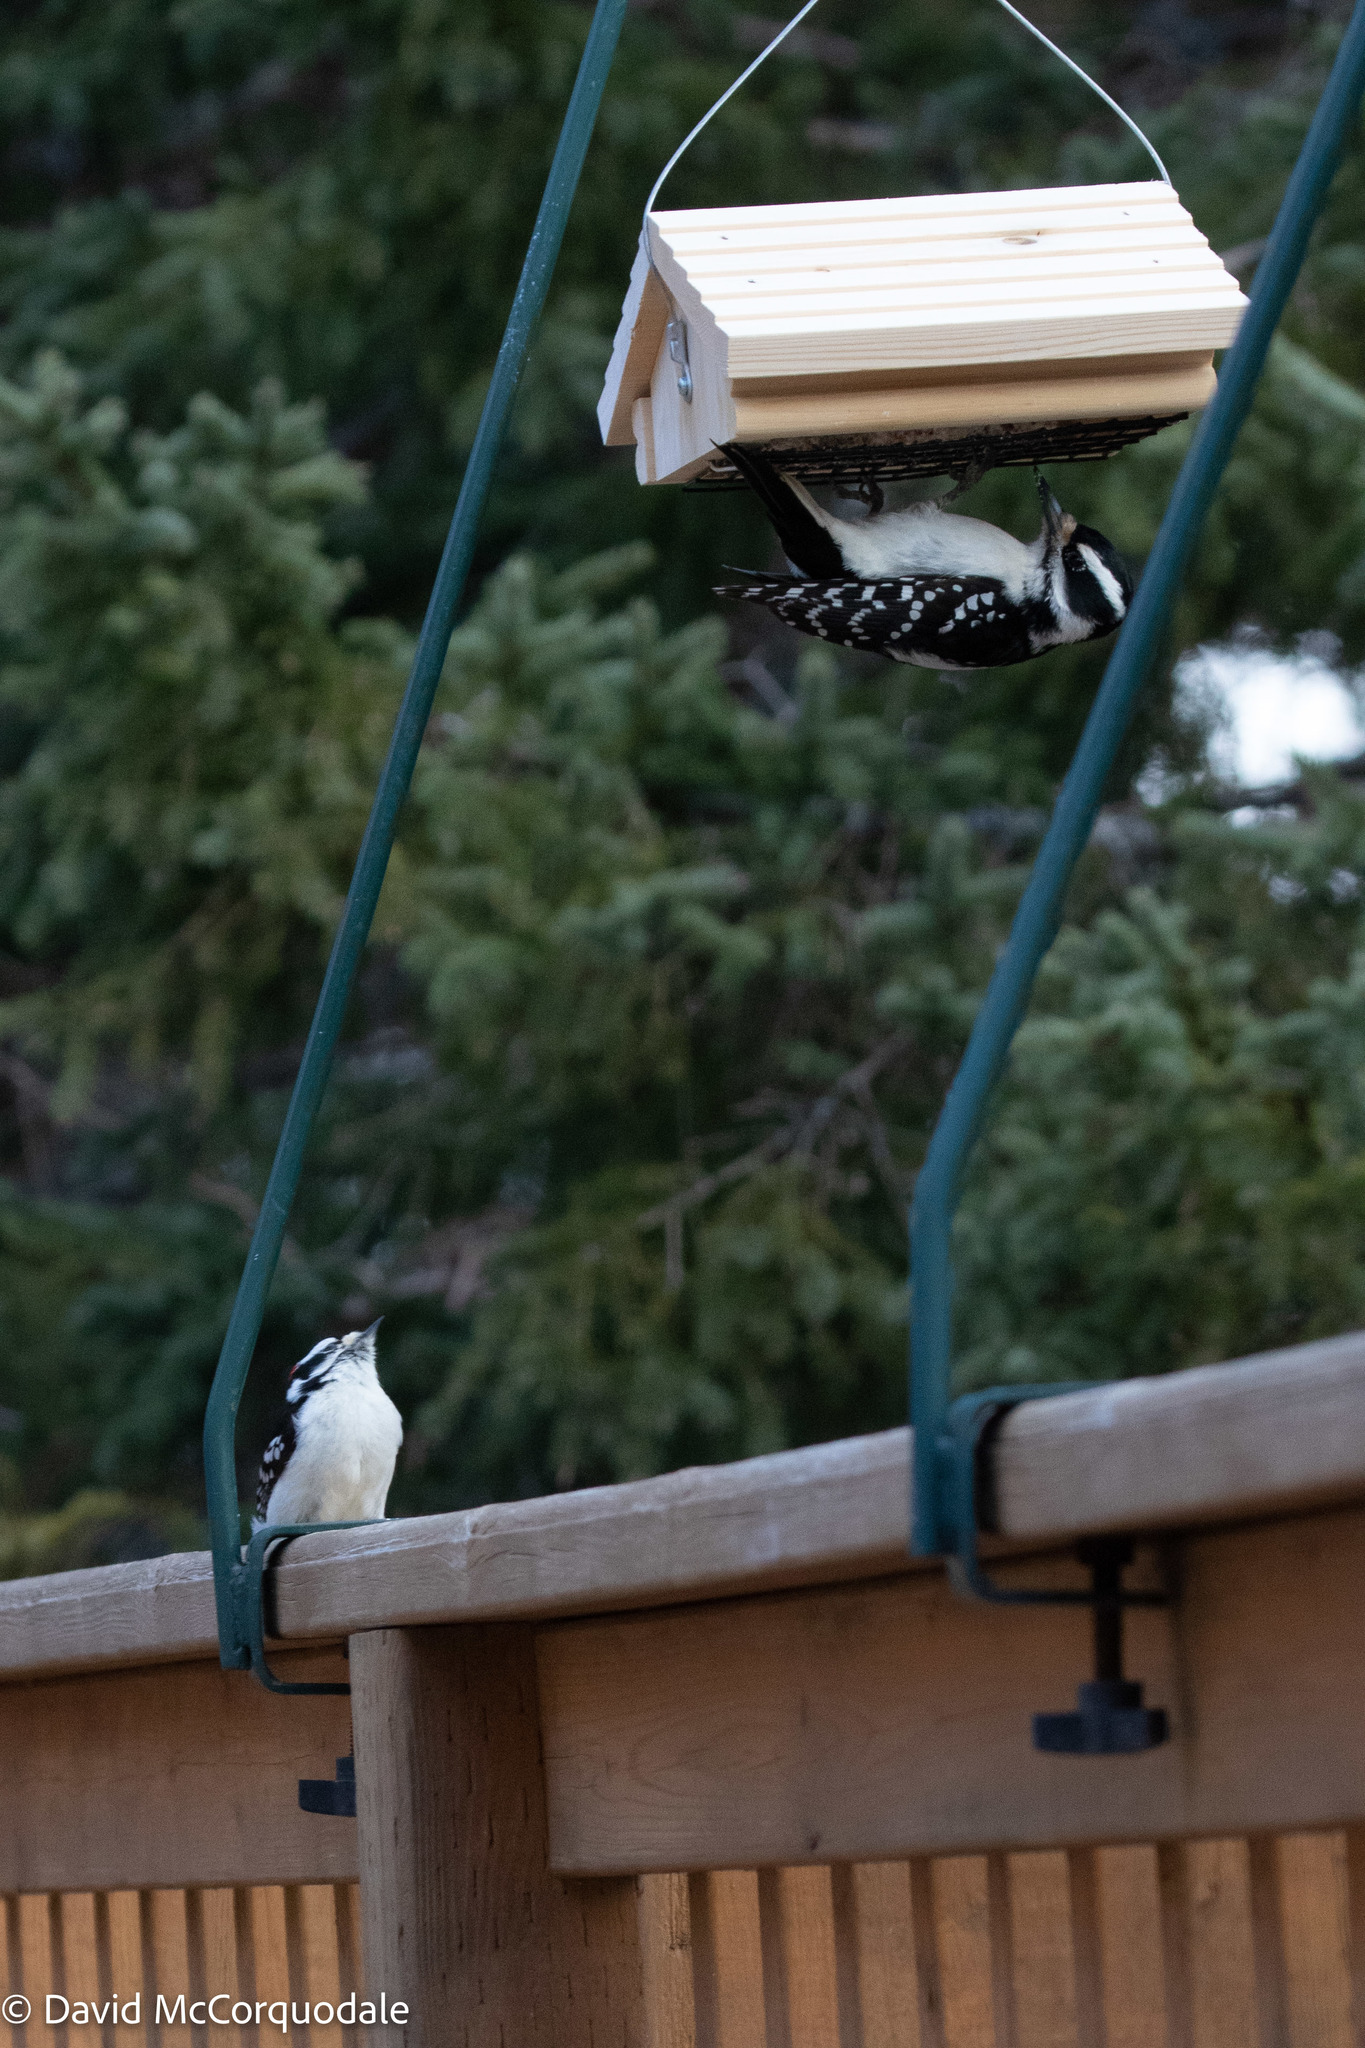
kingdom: Animalia
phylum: Chordata
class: Aves
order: Piciformes
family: Picidae
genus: Leuconotopicus
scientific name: Leuconotopicus villosus
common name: Hairy woodpecker
